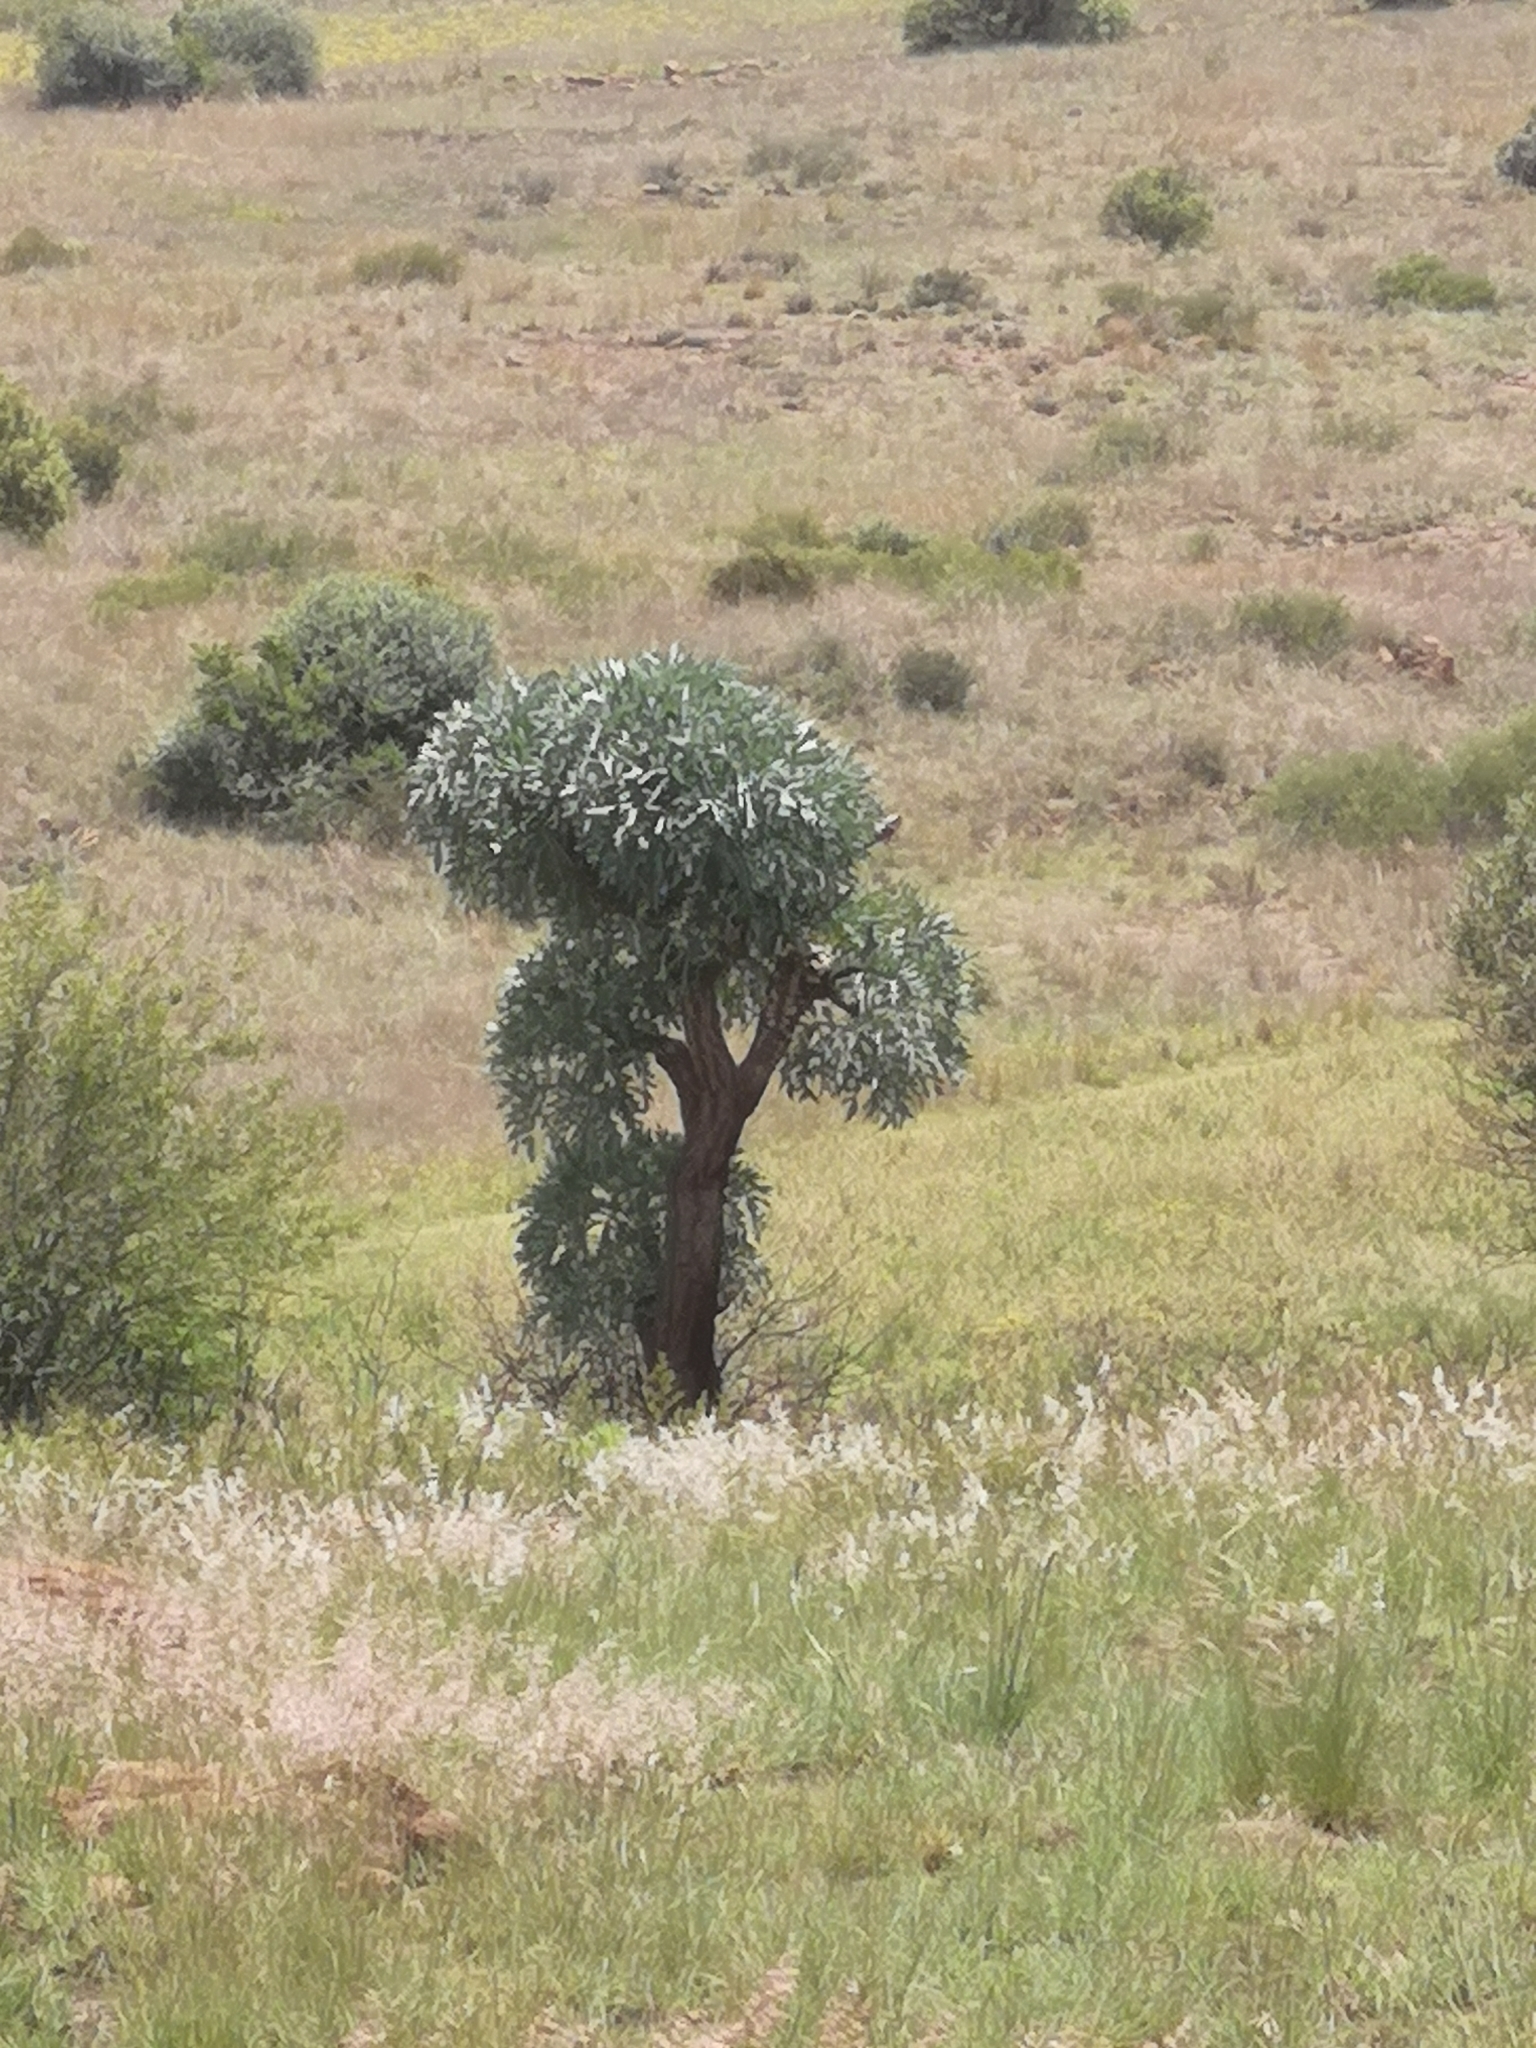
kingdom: Plantae
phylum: Tracheophyta
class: Magnoliopsida
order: Apiales
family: Araliaceae
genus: Cussonia
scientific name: Cussonia paniculata
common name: Cabbagetree
